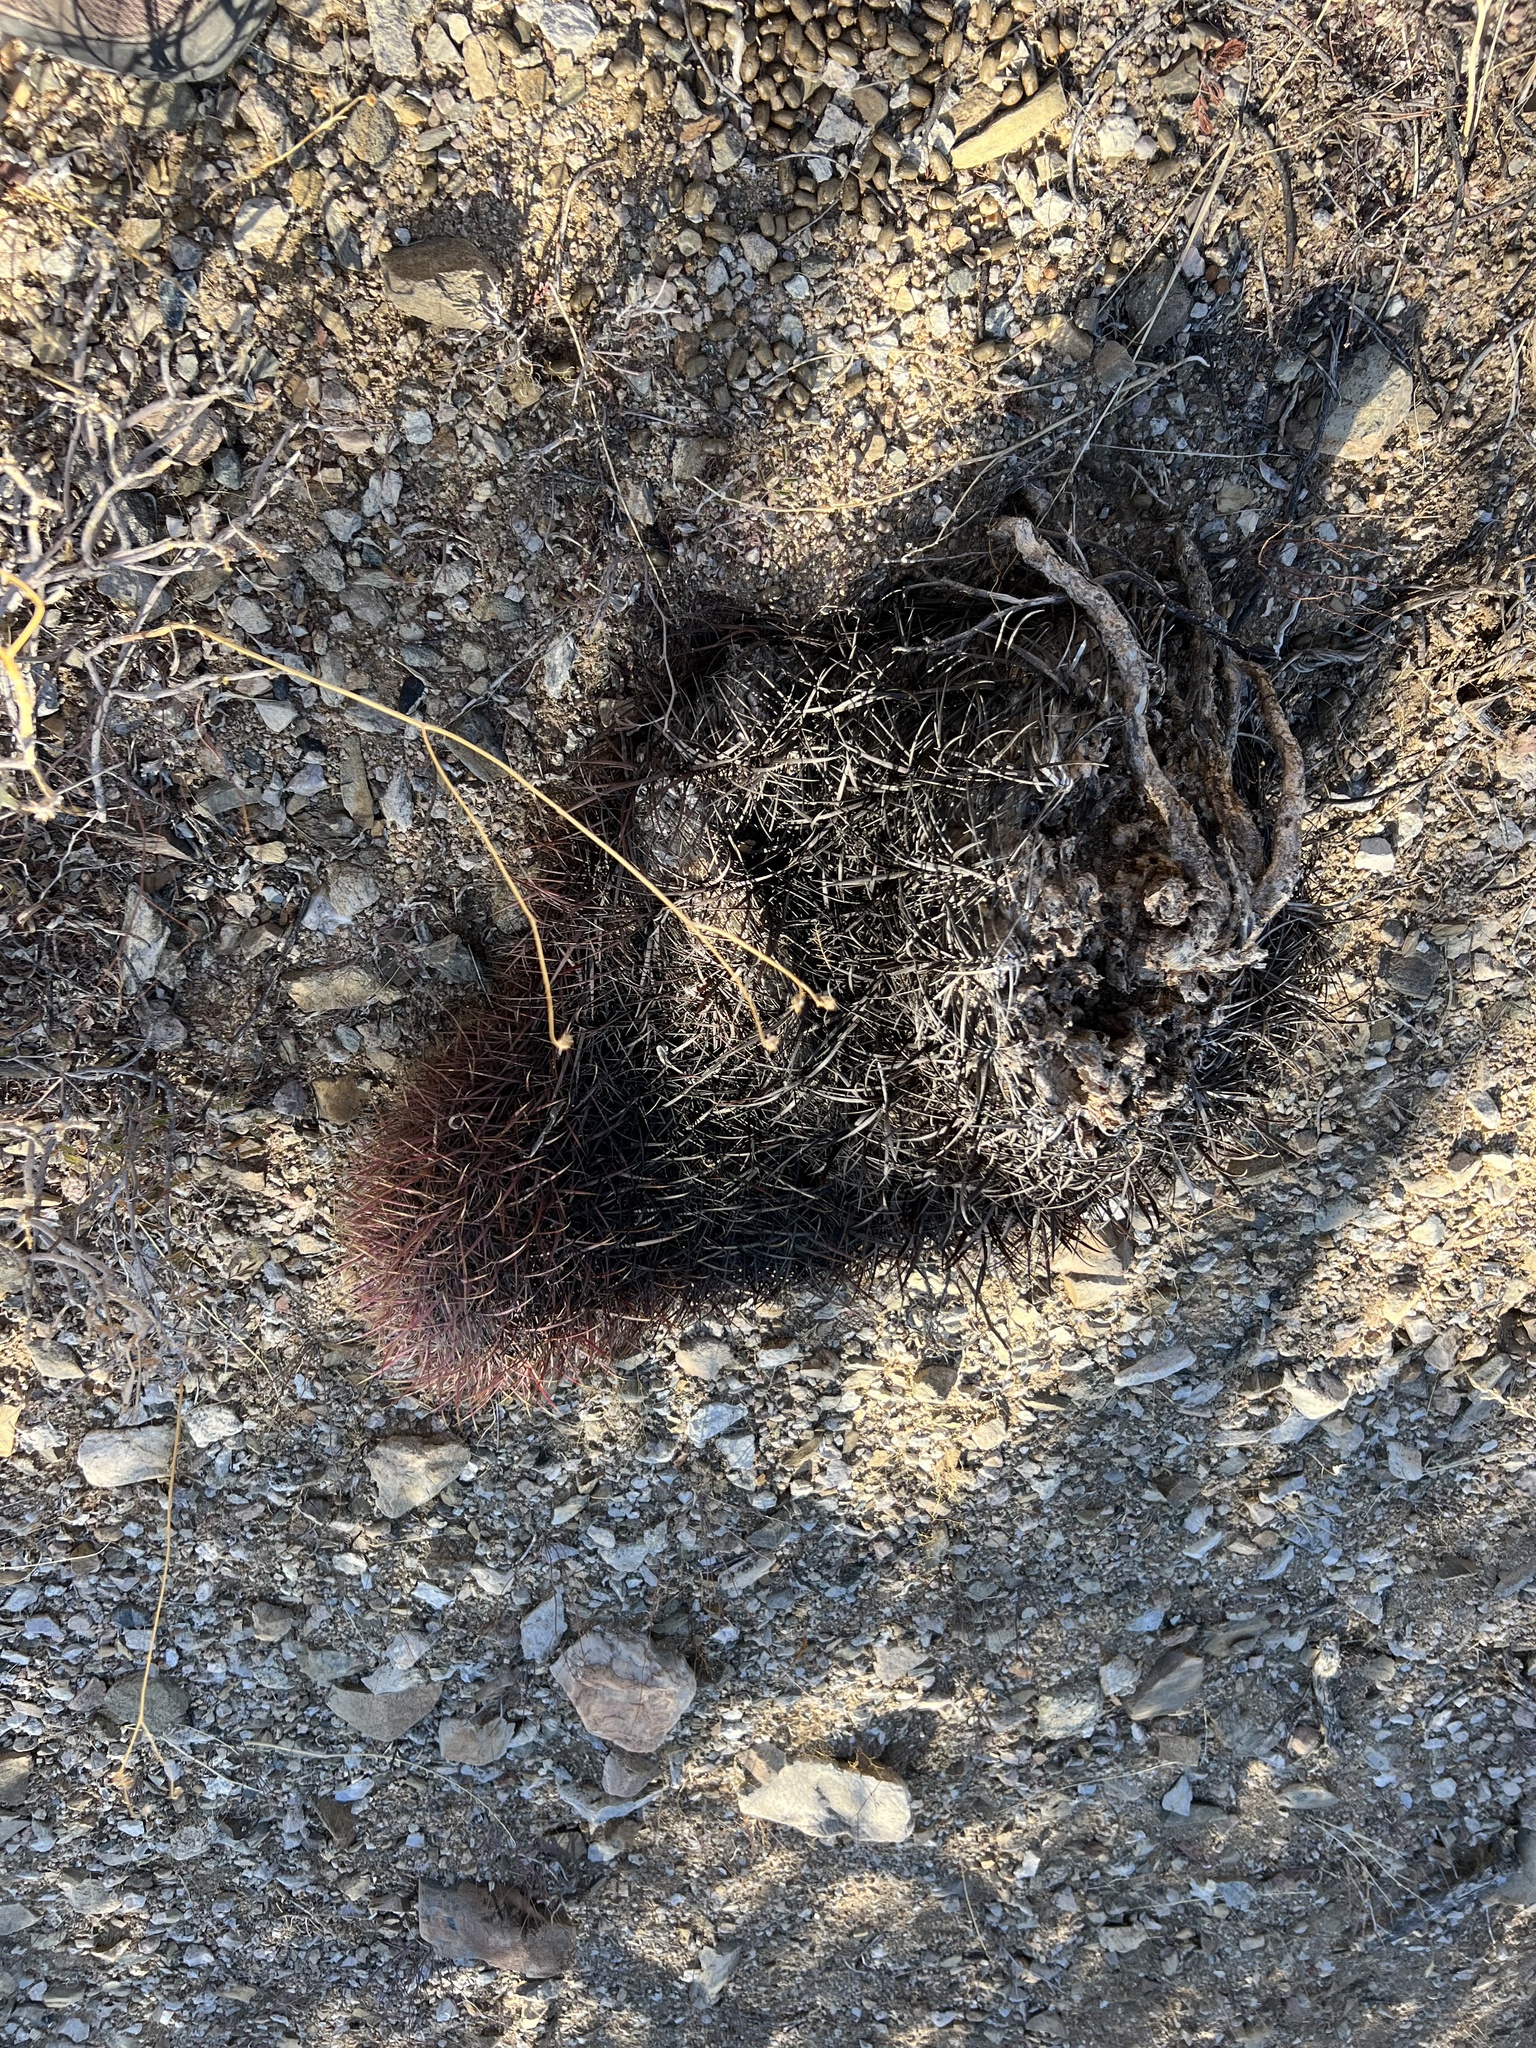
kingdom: Plantae
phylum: Tracheophyta
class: Magnoliopsida
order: Caryophyllales
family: Cactaceae
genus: Ferocactus
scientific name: Ferocactus cylindraceus
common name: California barrel cactus
